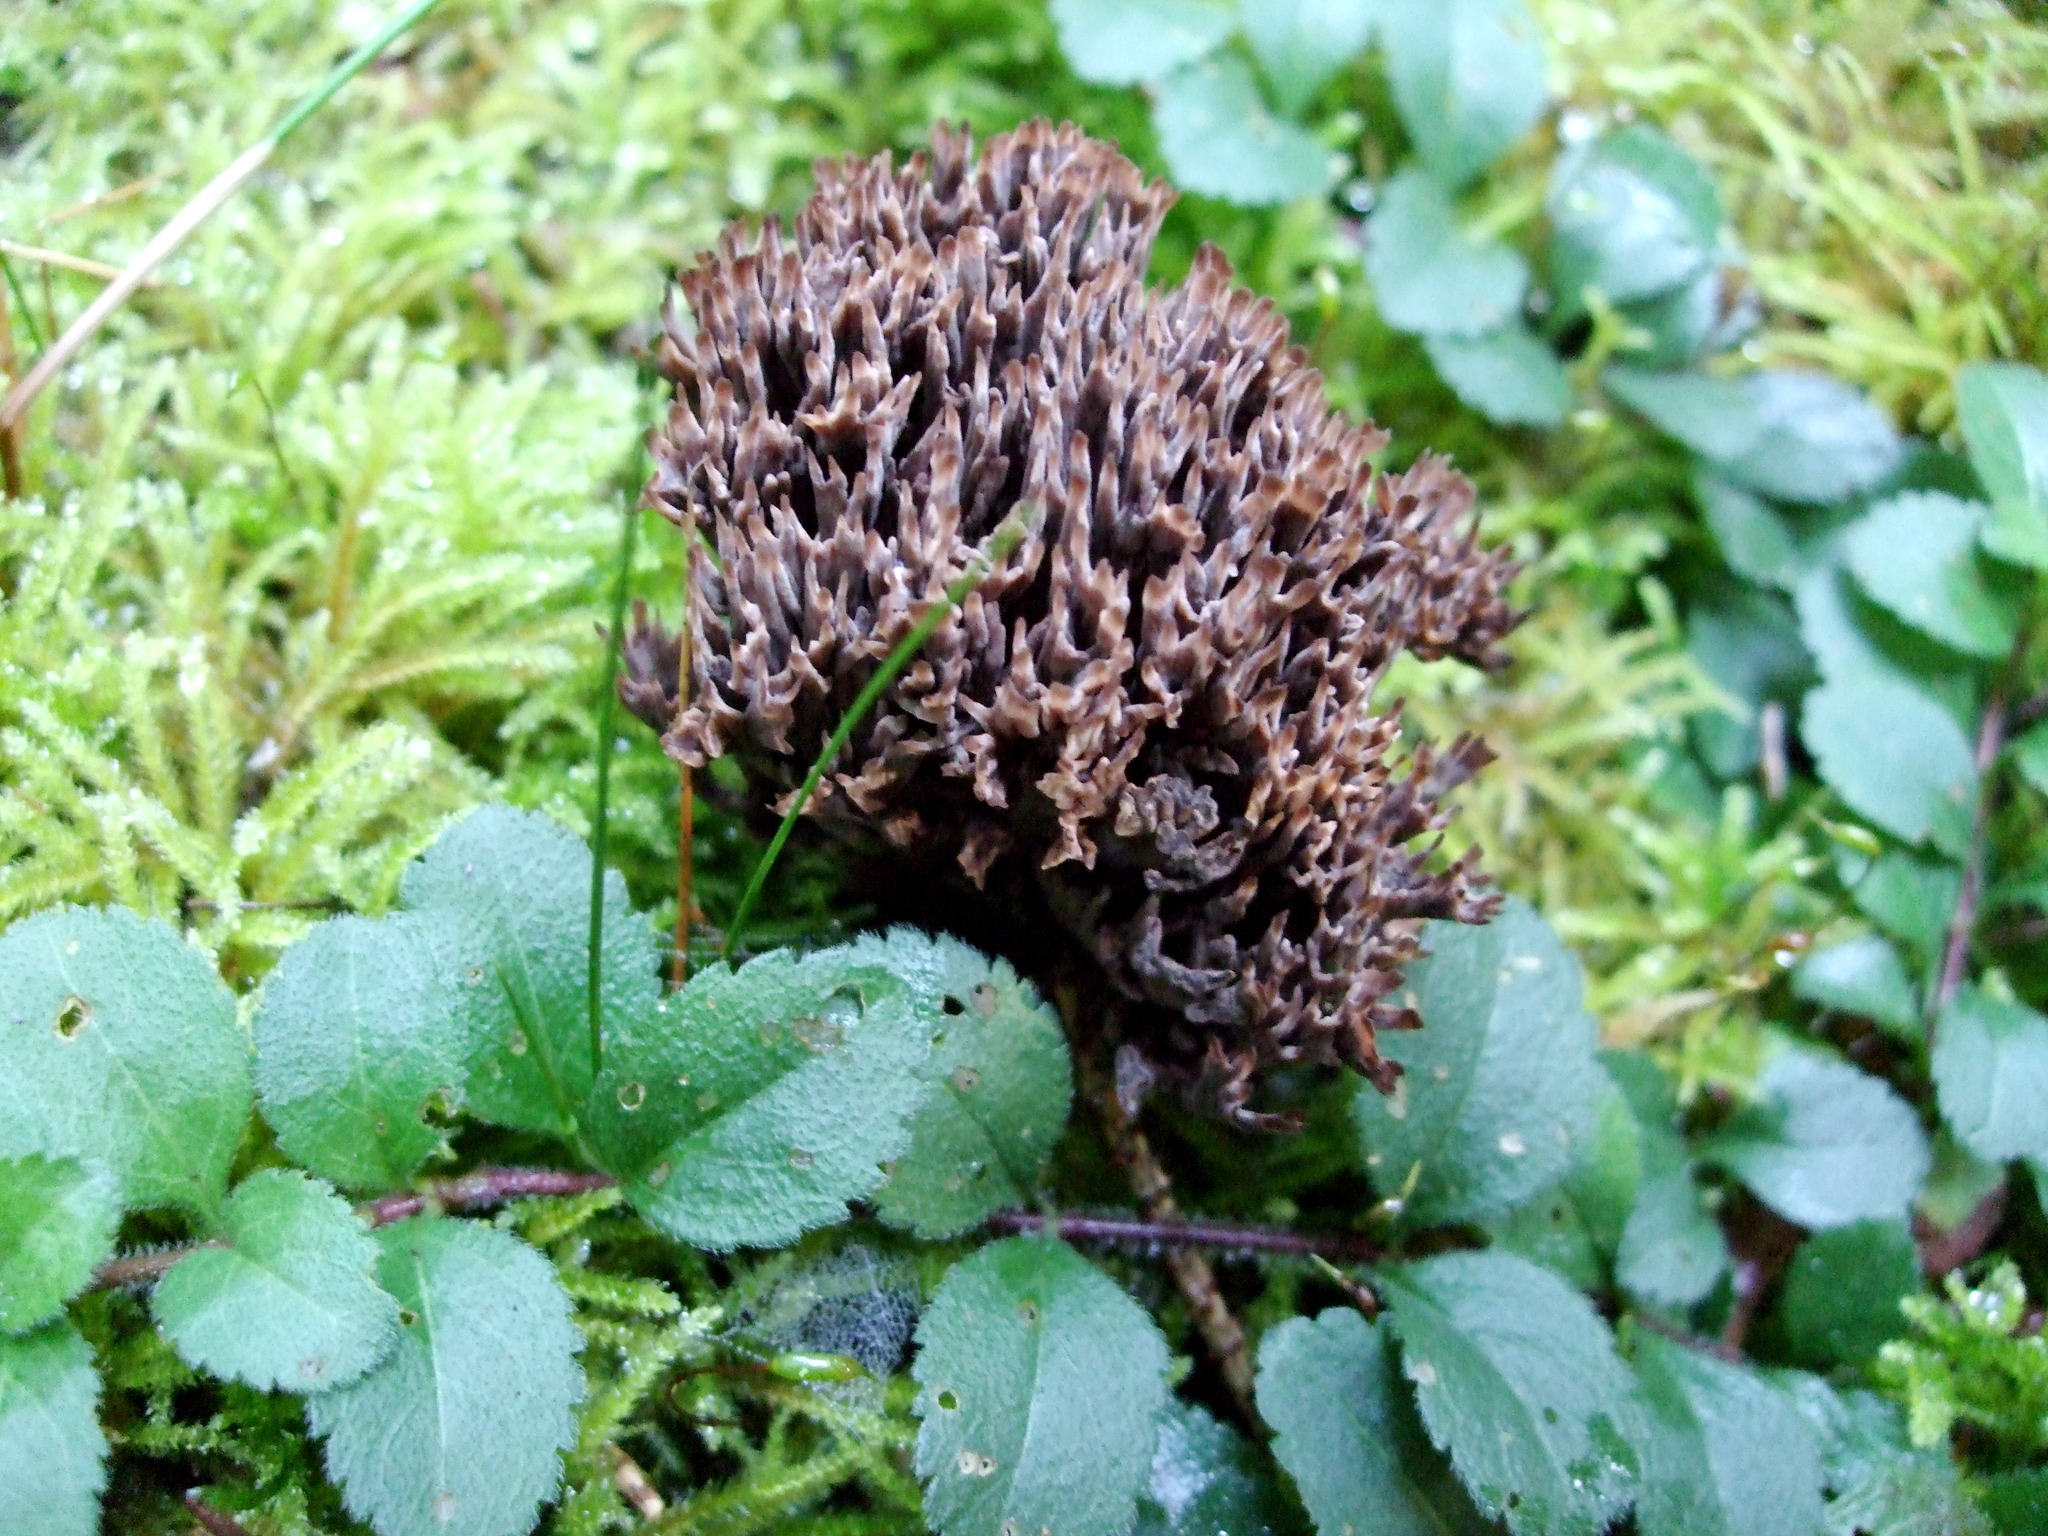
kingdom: Fungi
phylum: Basidiomycota
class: Agaricomycetes
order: Thelephorales
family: Thelephoraceae
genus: Thelephora
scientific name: Thelephora palmata
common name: Stinking earthfan
